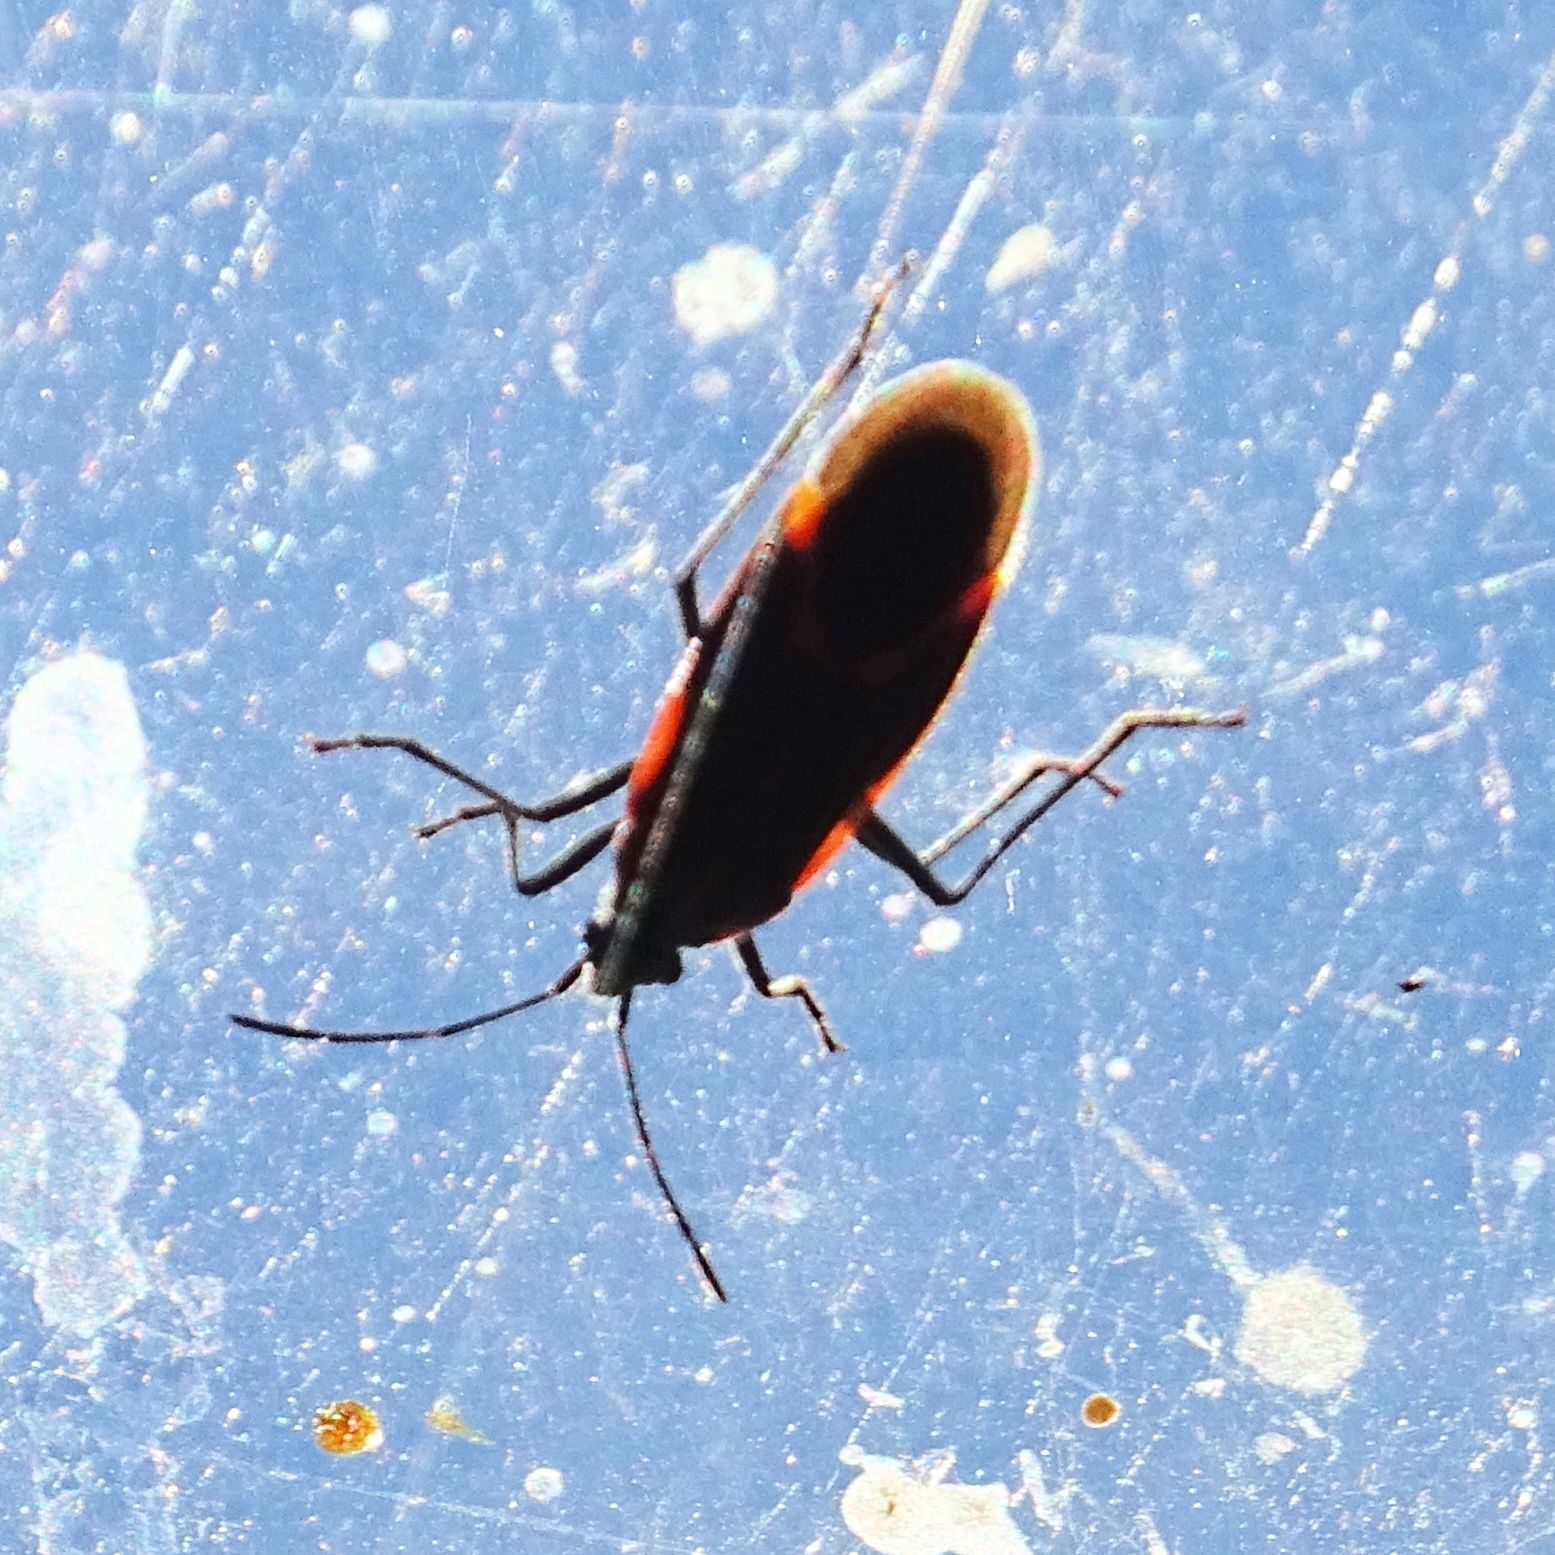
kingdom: Animalia
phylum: Arthropoda
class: Insecta
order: Hemiptera
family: Rhopalidae
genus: Boisea
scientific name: Boisea trivittata
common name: Boxelder bug
